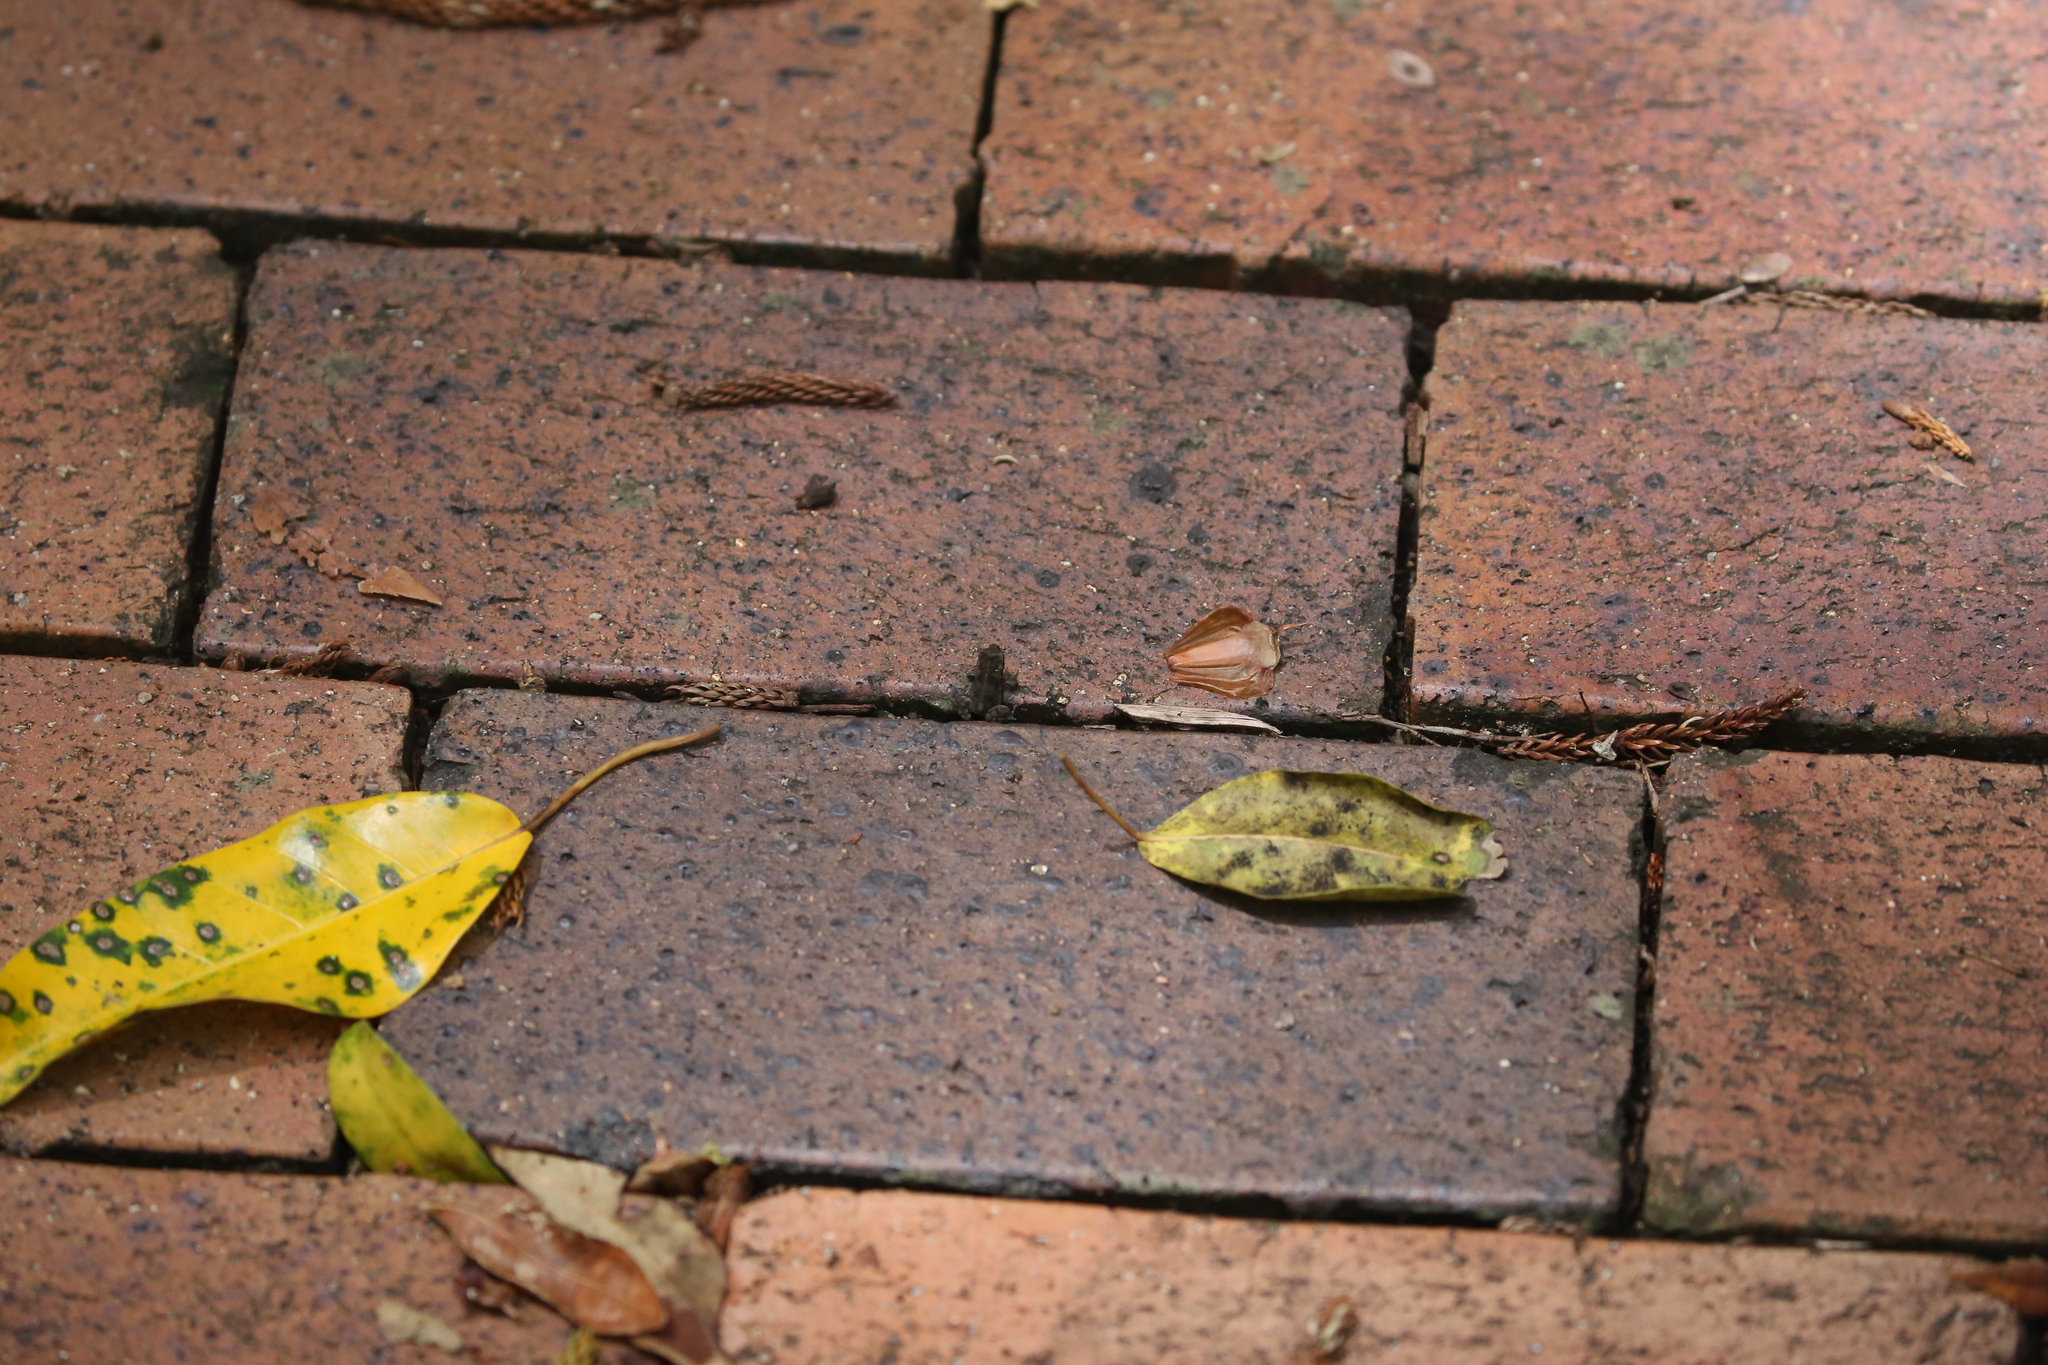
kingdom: Animalia
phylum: Chordata
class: Amphibia
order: Anura
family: Bufonidae
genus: Rhinella
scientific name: Rhinella marina
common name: Cane toad
